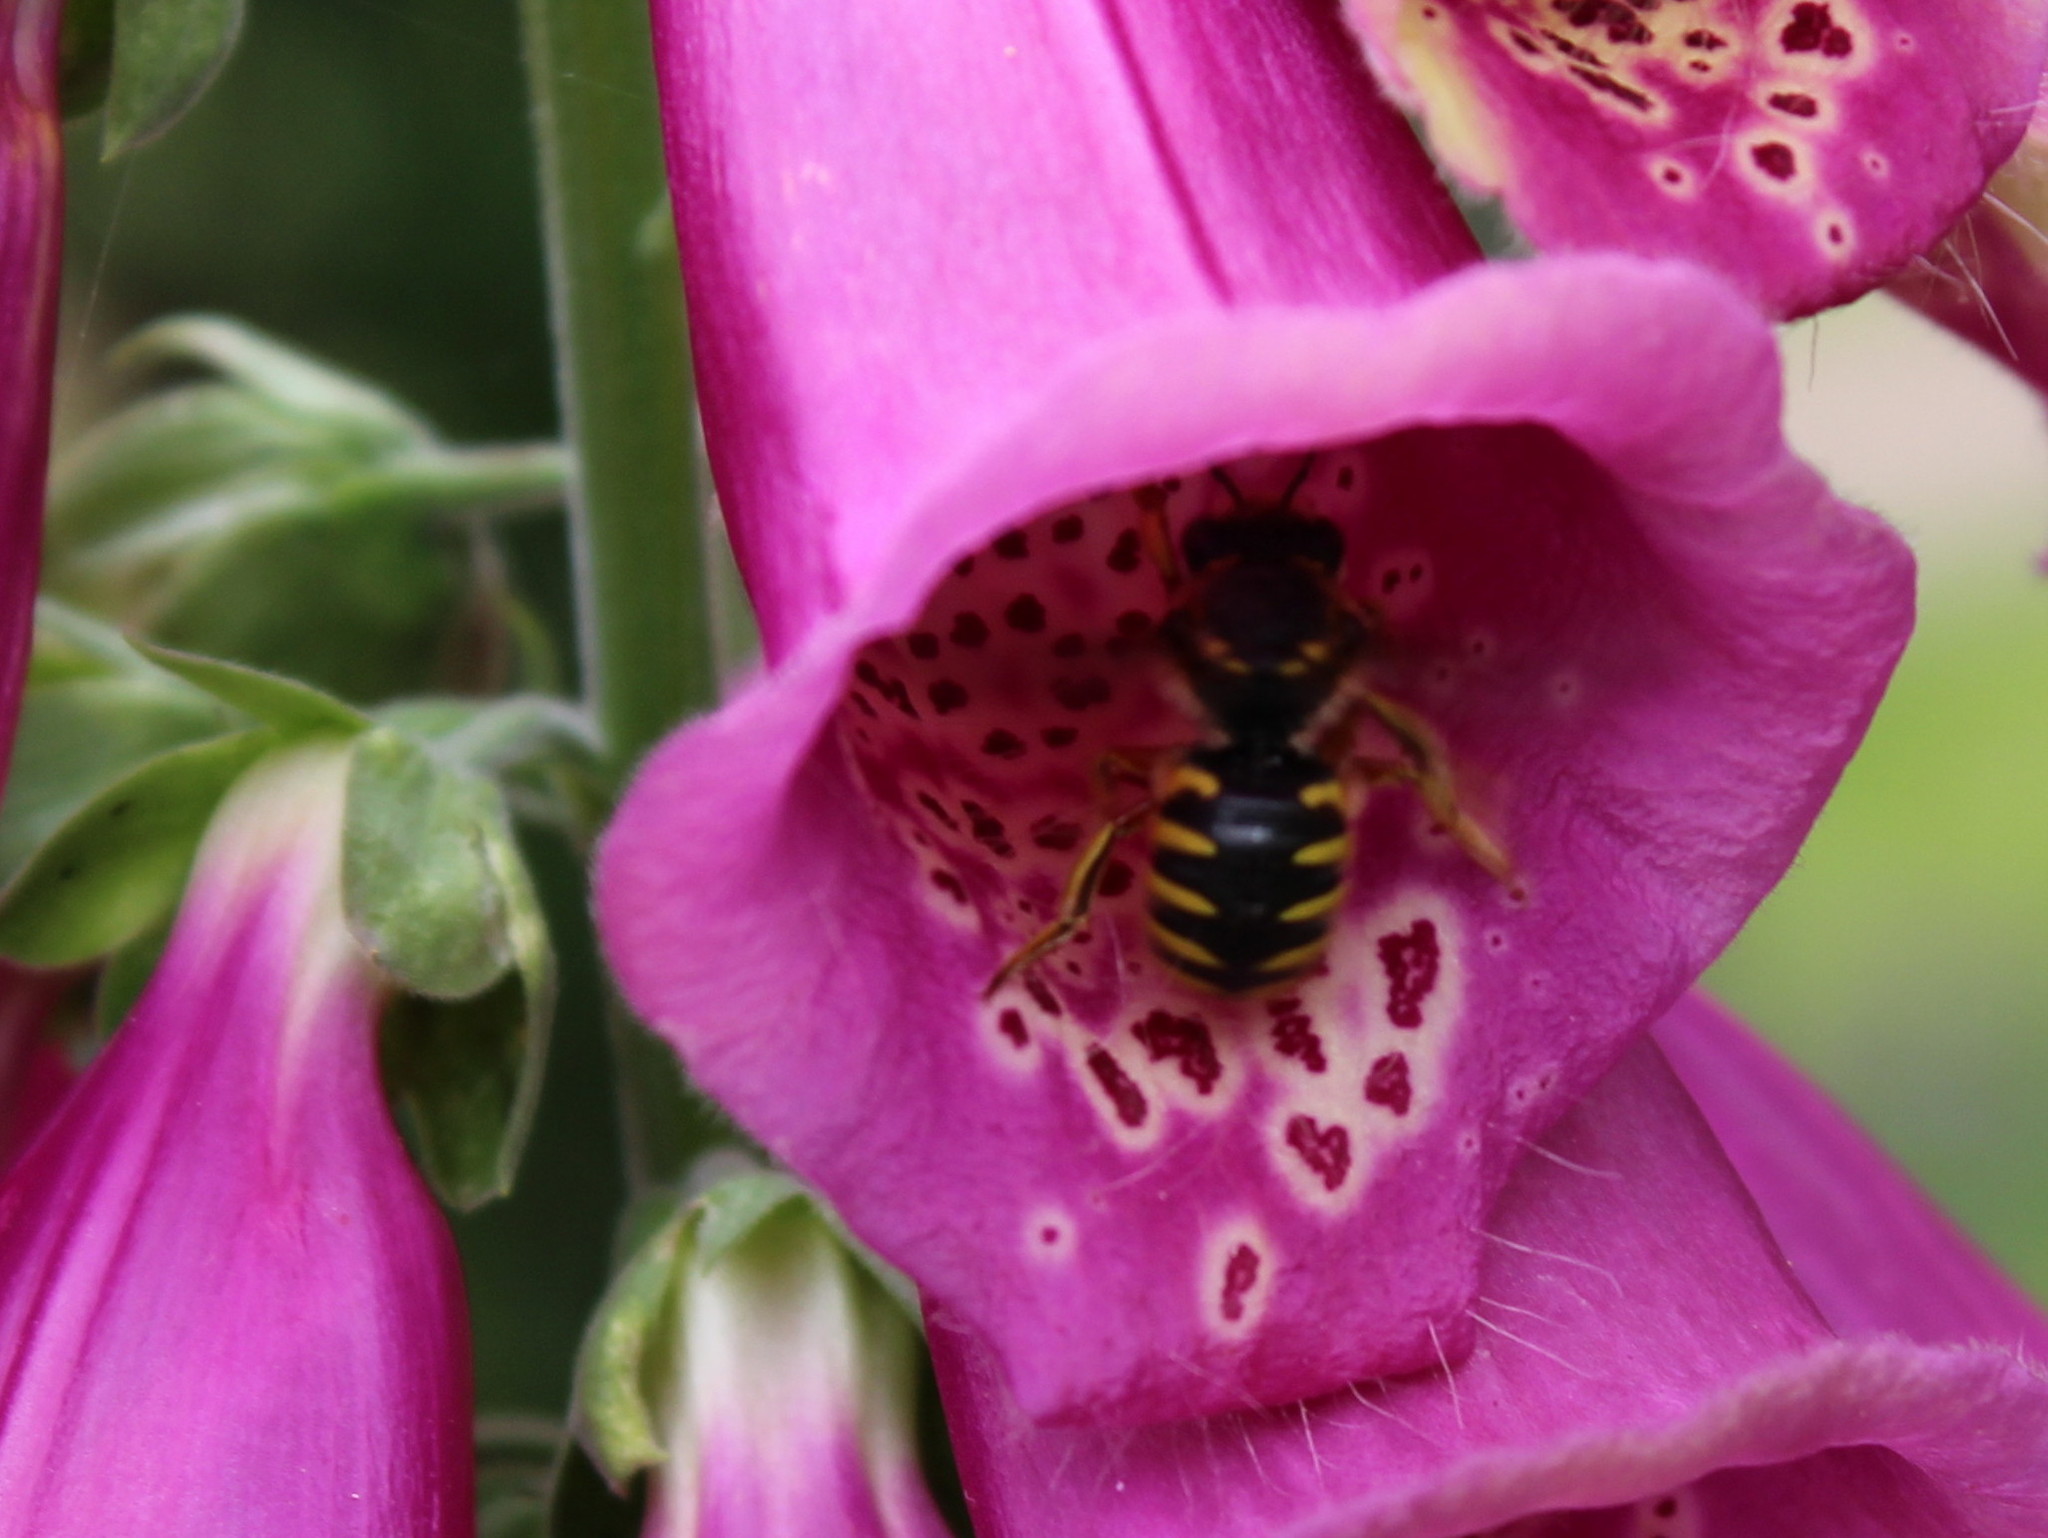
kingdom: Animalia
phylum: Arthropoda
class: Insecta
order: Hymenoptera
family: Megachilidae
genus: Anthidium
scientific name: Anthidium manicatum
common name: Wool carder bee
